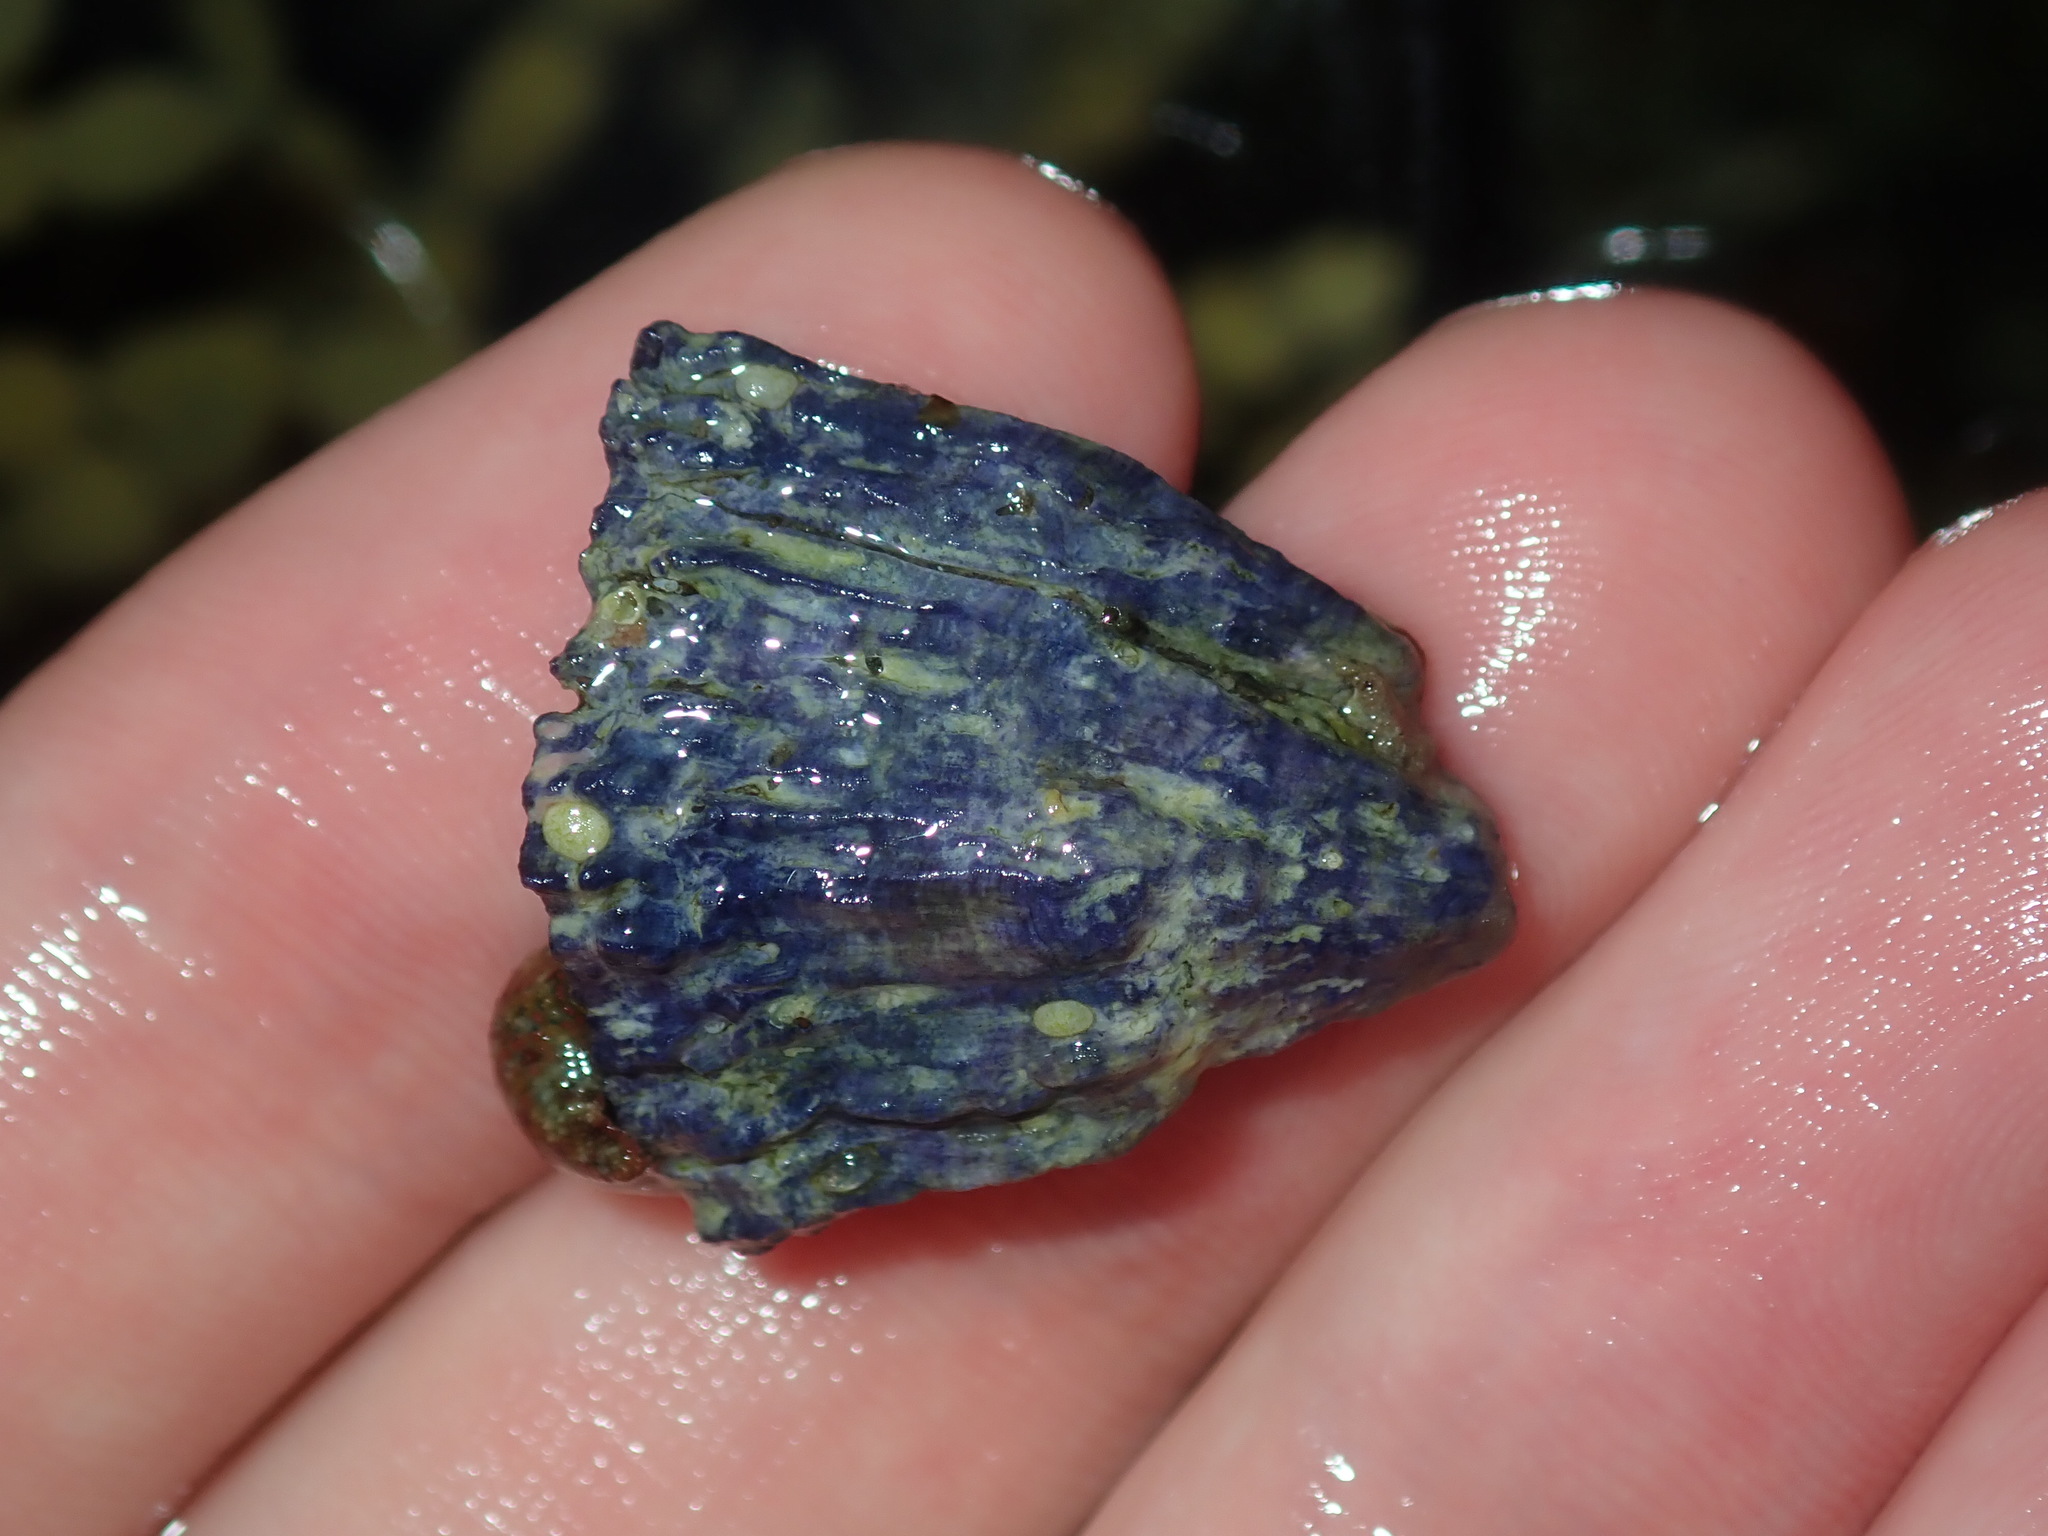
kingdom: Animalia
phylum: Arthropoda
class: Maxillopoda
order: Sessilia
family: Austrobalanidae
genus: Austrobalanus
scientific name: Austrobalanus imperator
